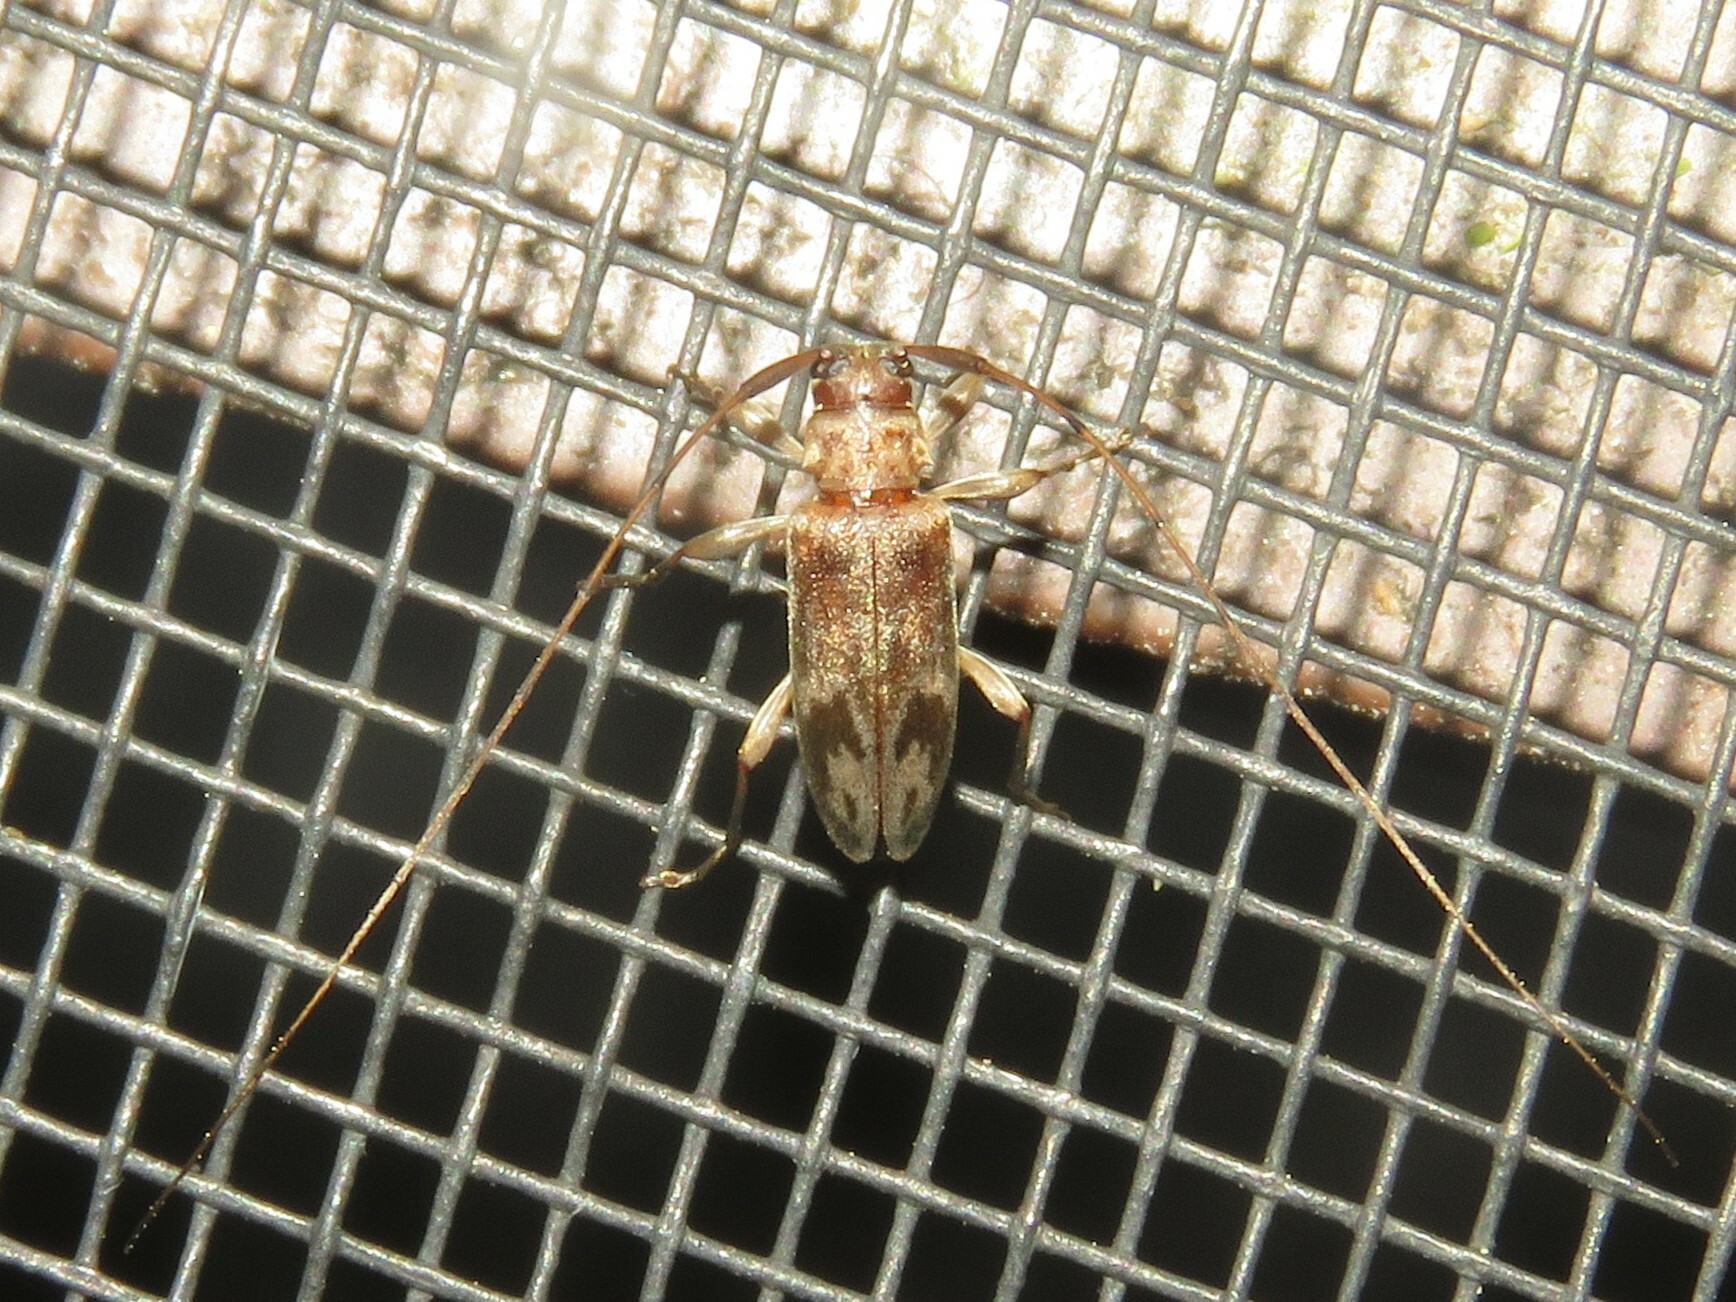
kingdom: Animalia
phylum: Arthropoda
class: Insecta
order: Coleoptera
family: Cerambycidae
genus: Urgleptes
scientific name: Urgleptes signatus
